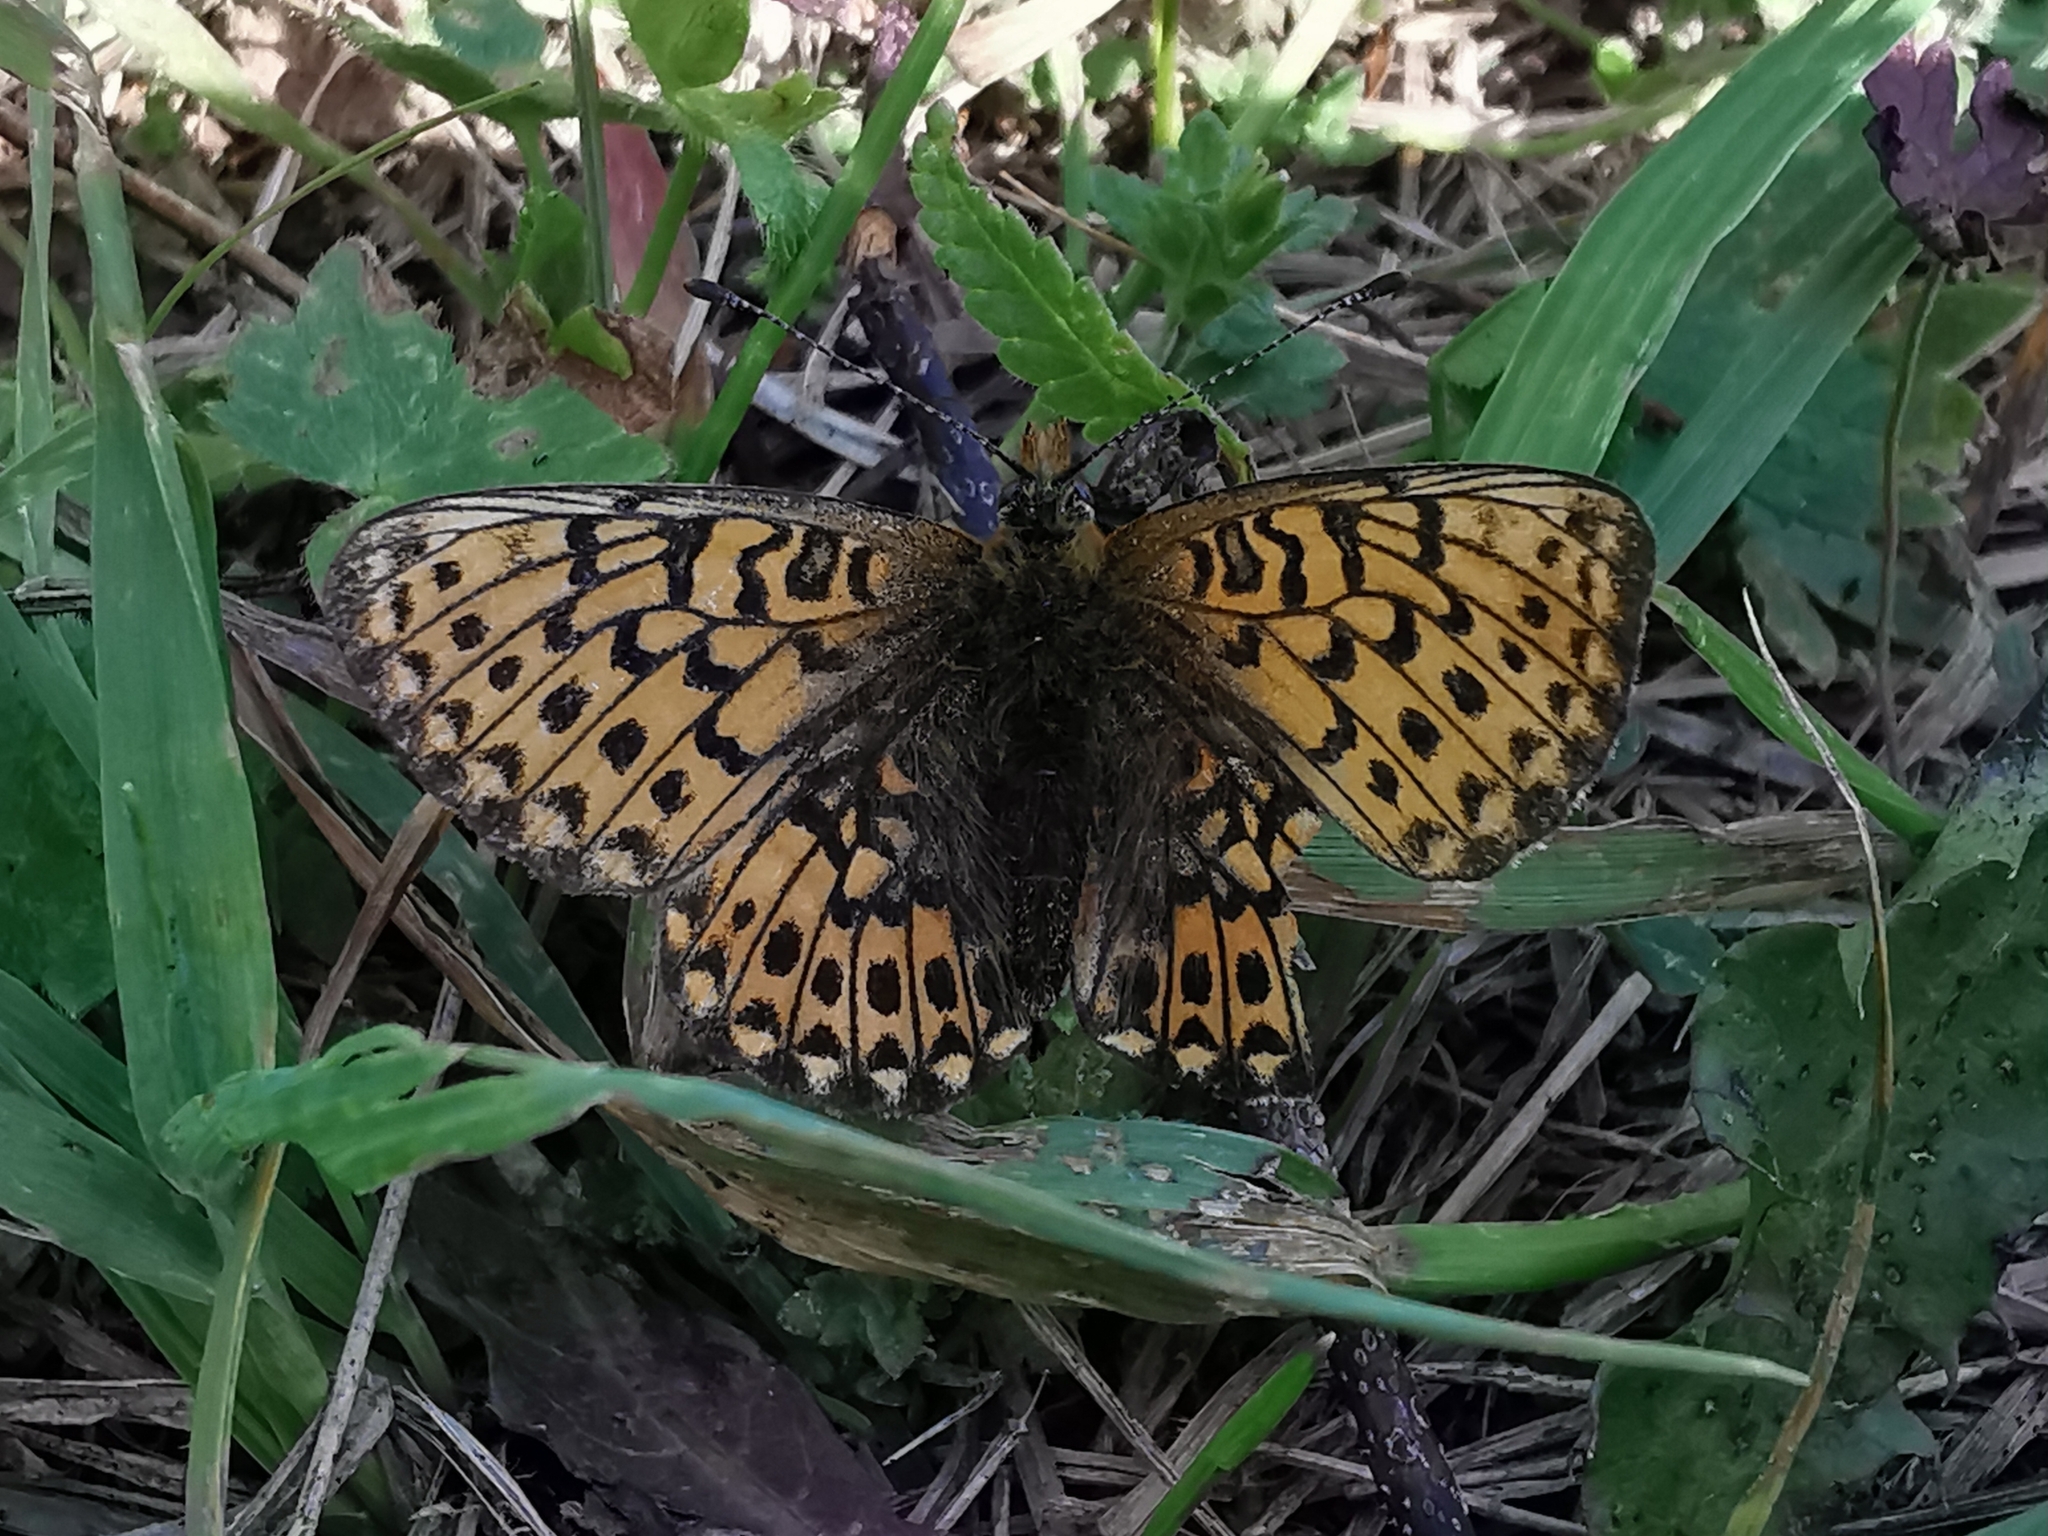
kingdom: Animalia
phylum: Arthropoda
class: Insecta
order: Lepidoptera
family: Nymphalidae
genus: Clossiana
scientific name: Clossiana euphrosyne
